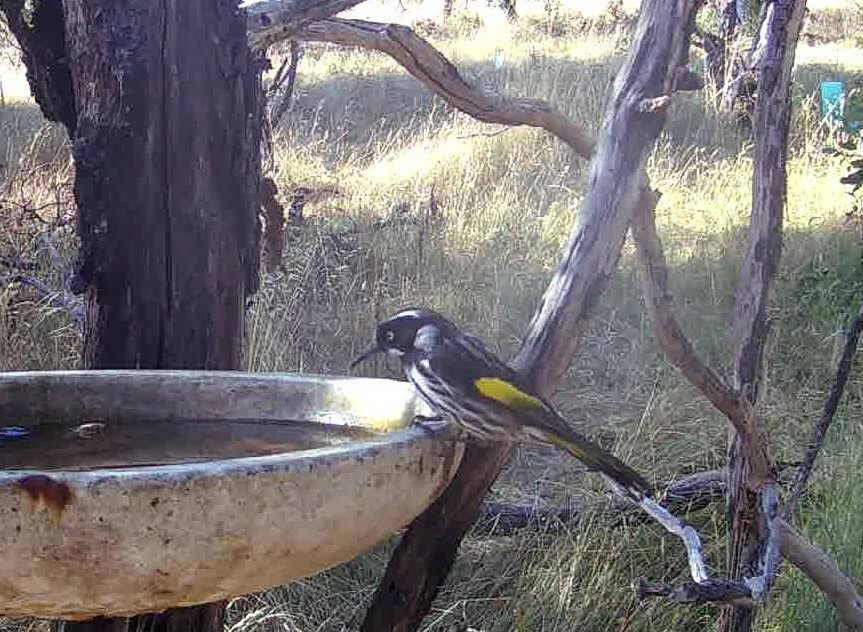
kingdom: Animalia
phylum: Chordata
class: Aves
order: Passeriformes
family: Meliphagidae
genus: Phylidonyris
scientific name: Phylidonyris novaehollandiae
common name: New holland honeyeater
